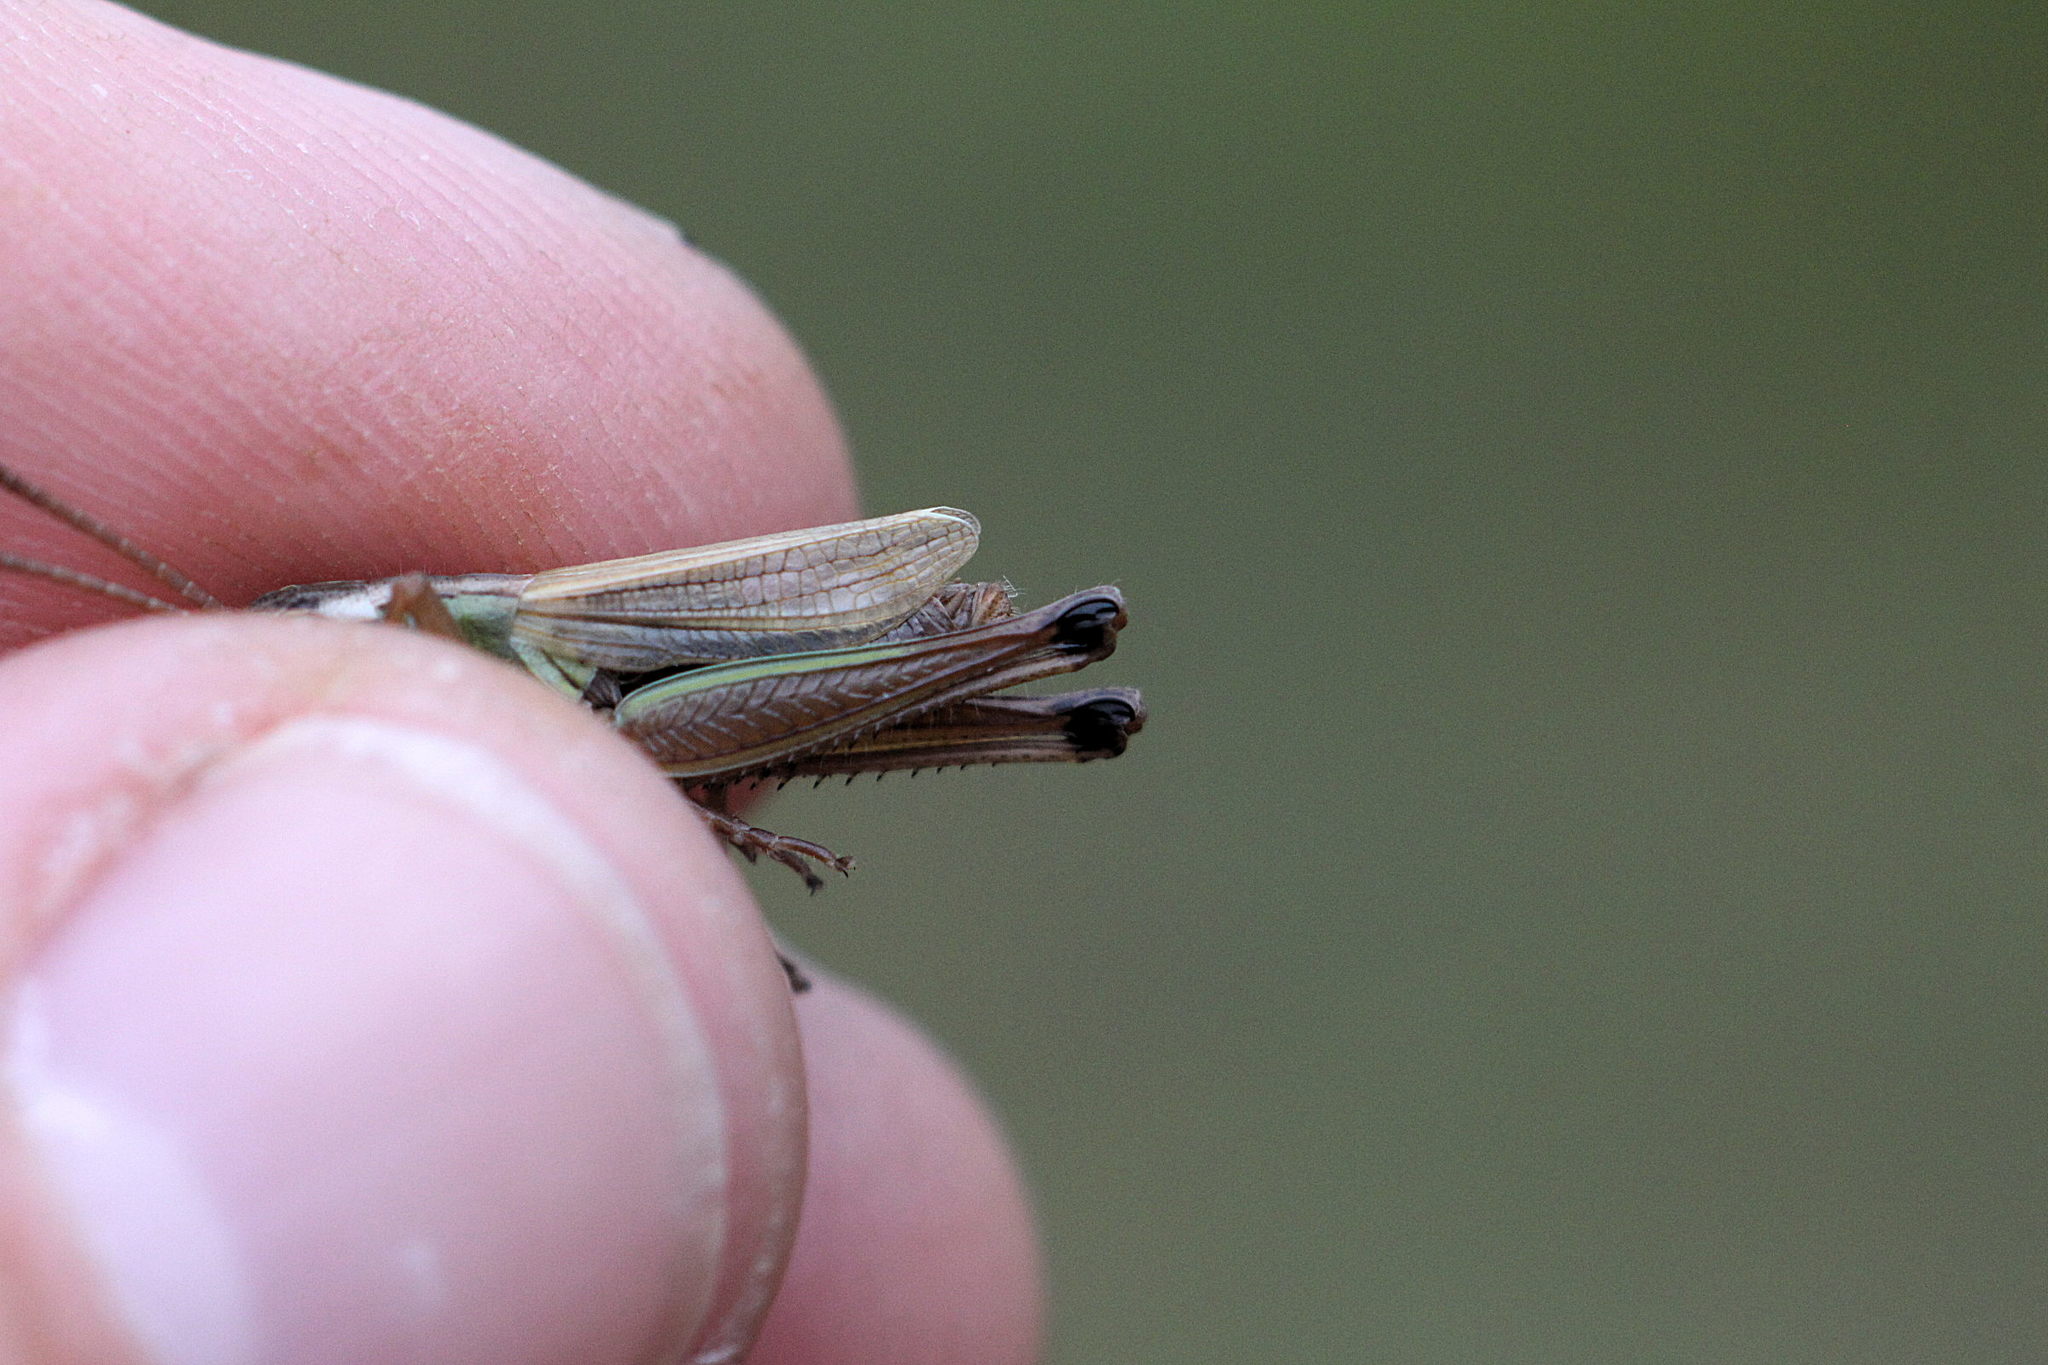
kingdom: Animalia
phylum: Arthropoda
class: Insecta
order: Orthoptera
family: Acrididae
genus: Pseudochorthippus
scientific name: Pseudochorthippus parallelus
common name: Meadow grasshopper
